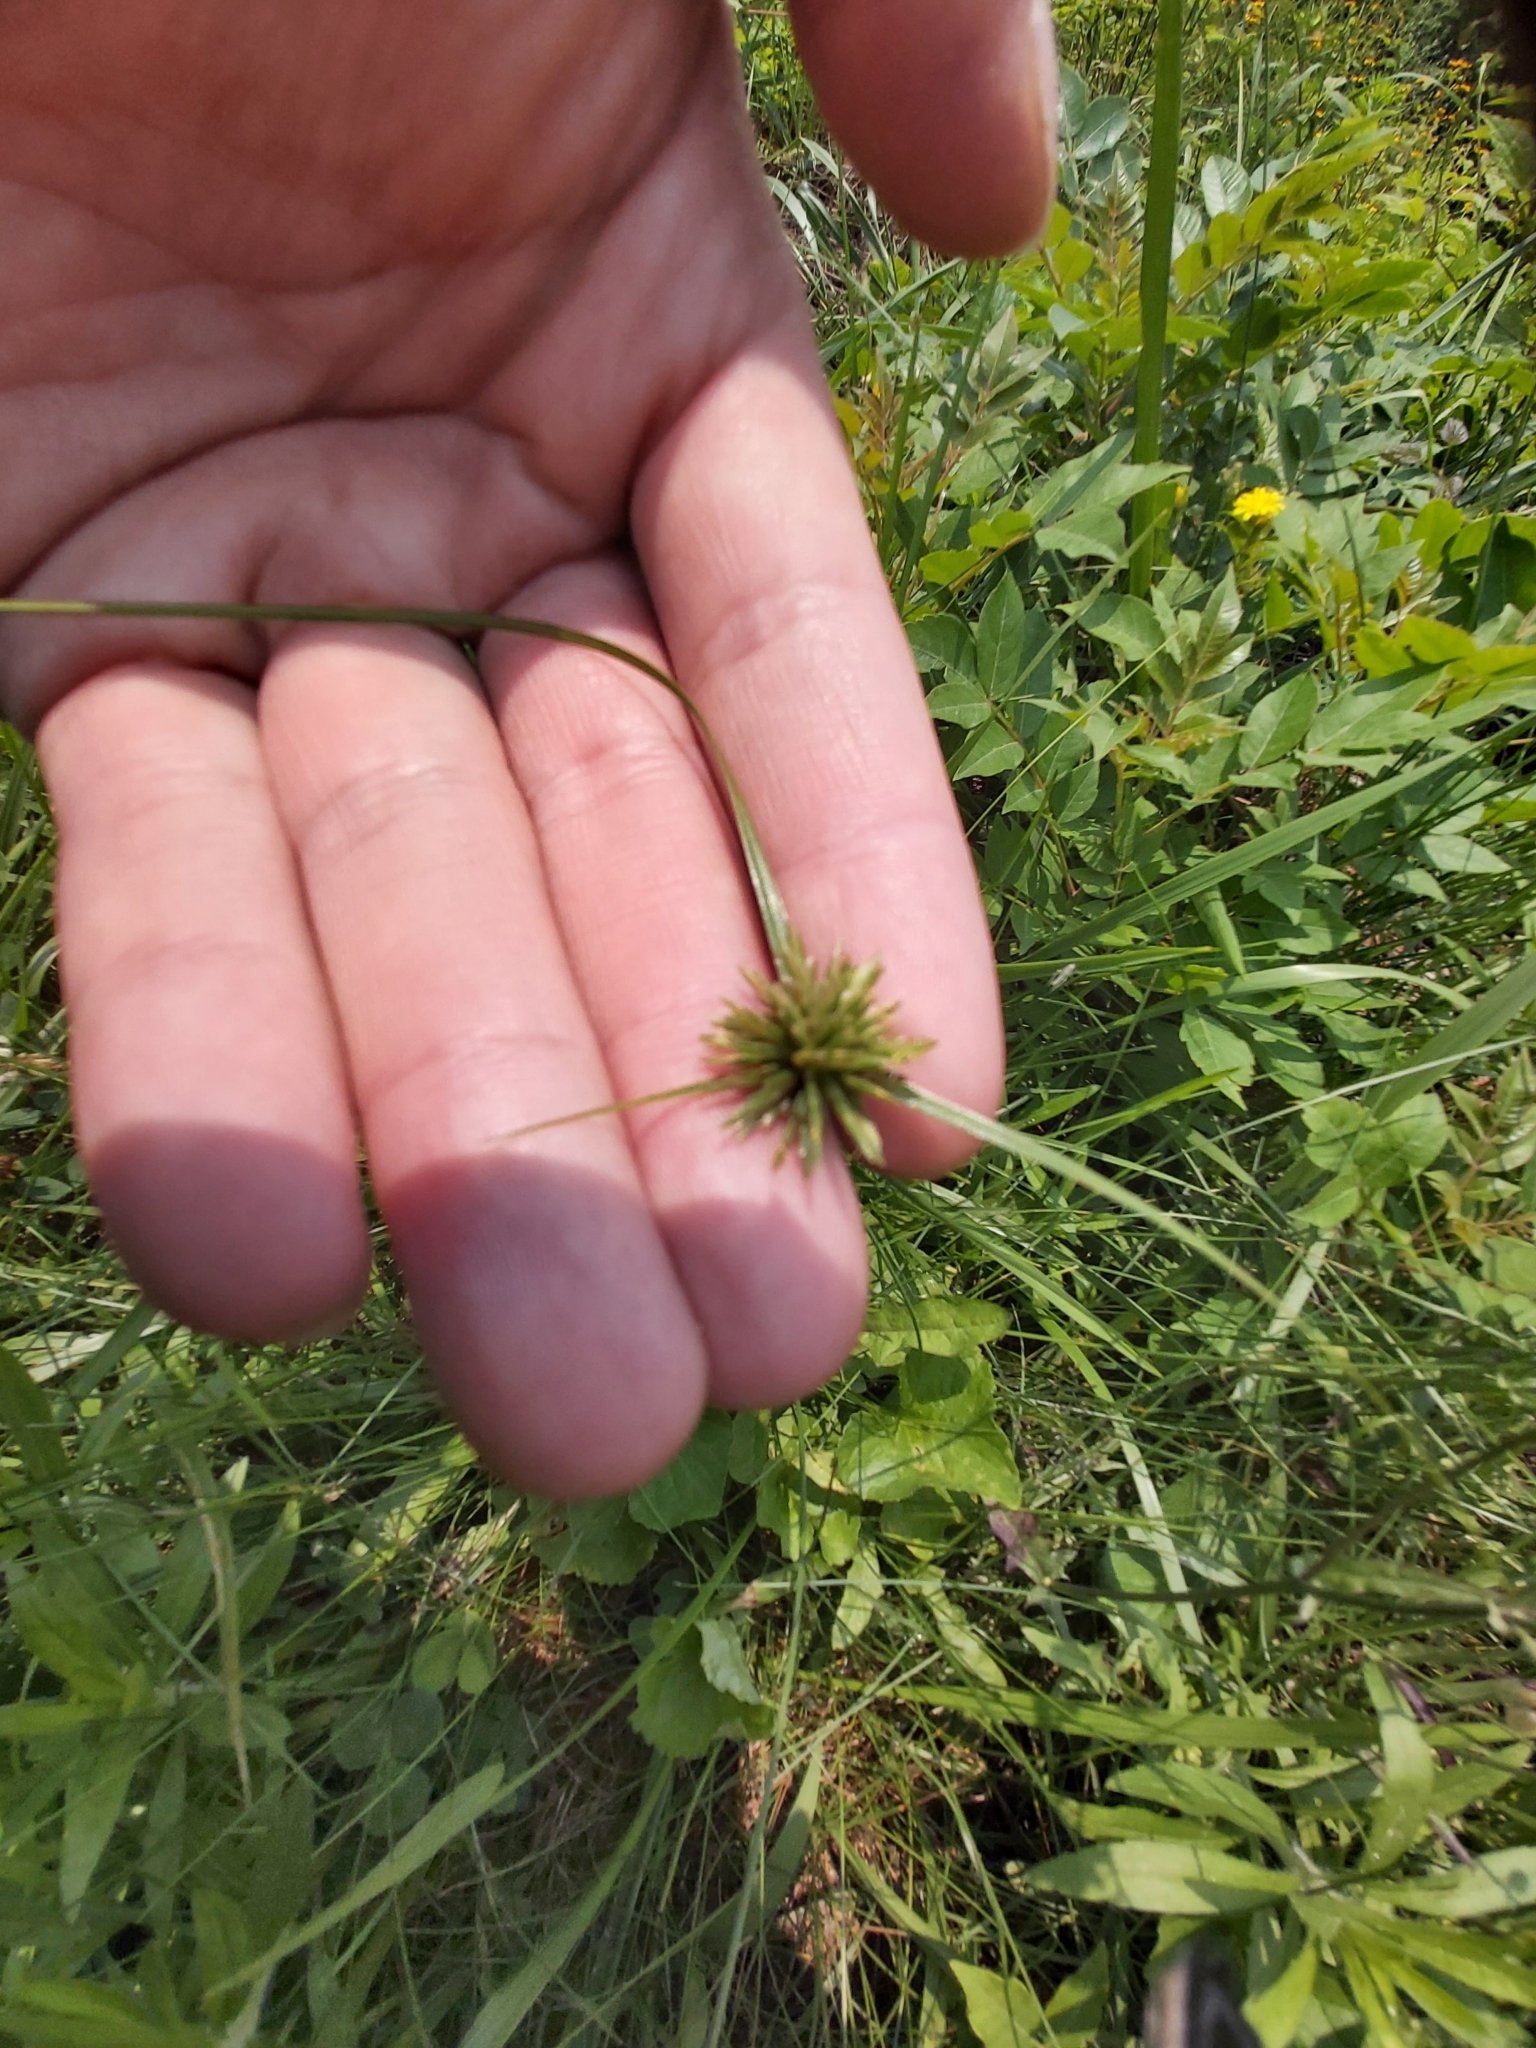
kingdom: Plantae
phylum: Tracheophyta
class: Liliopsida
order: Poales
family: Cyperaceae
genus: Cyperus
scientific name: Cyperus lupulinus
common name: Great plains flatsedge
